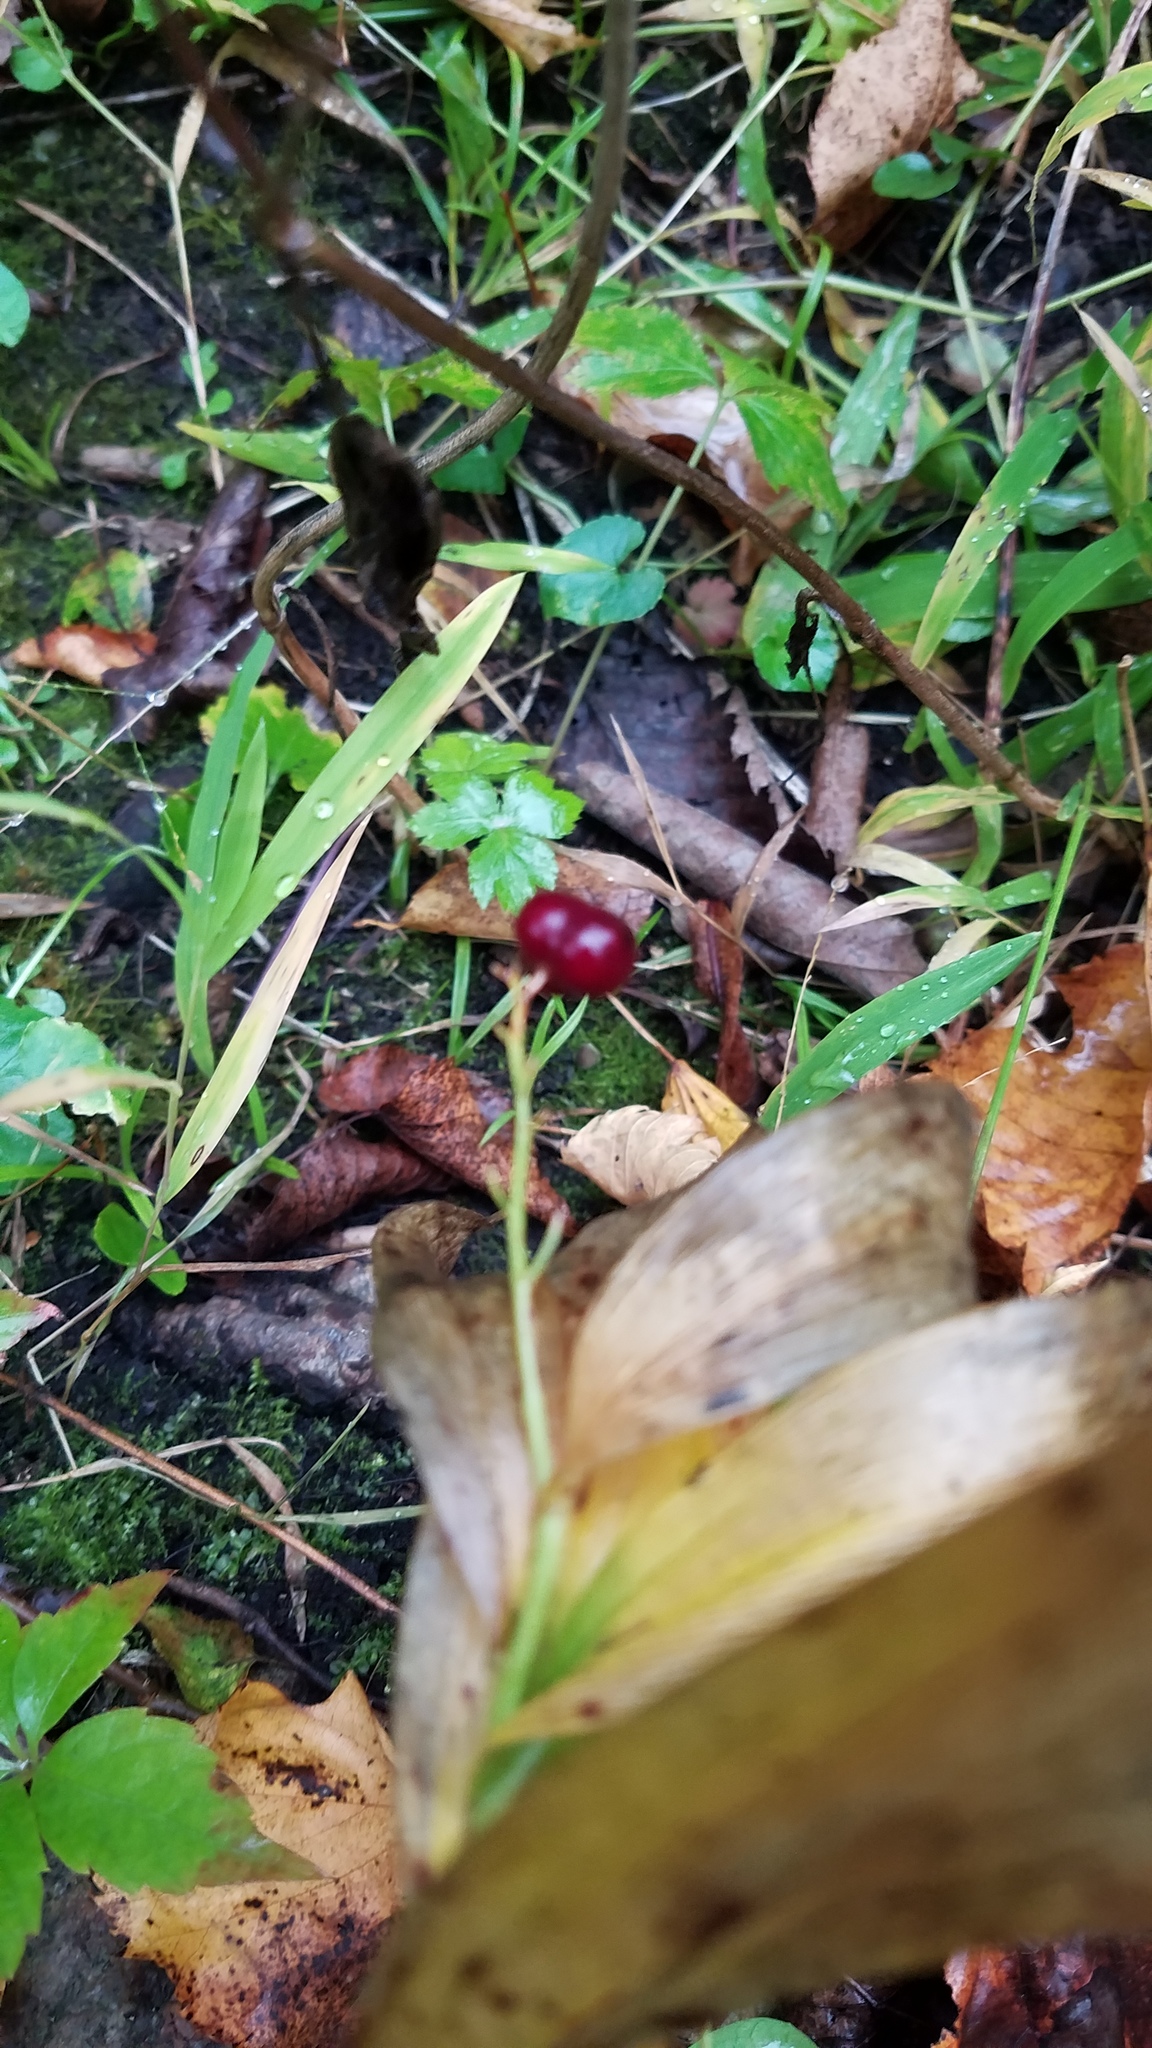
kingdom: Plantae
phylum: Tracheophyta
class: Liliopsida
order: Asparagales
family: Asparagaceae
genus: Maianthemum
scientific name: Maianthemum stellatum
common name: Little false solomon's seal
